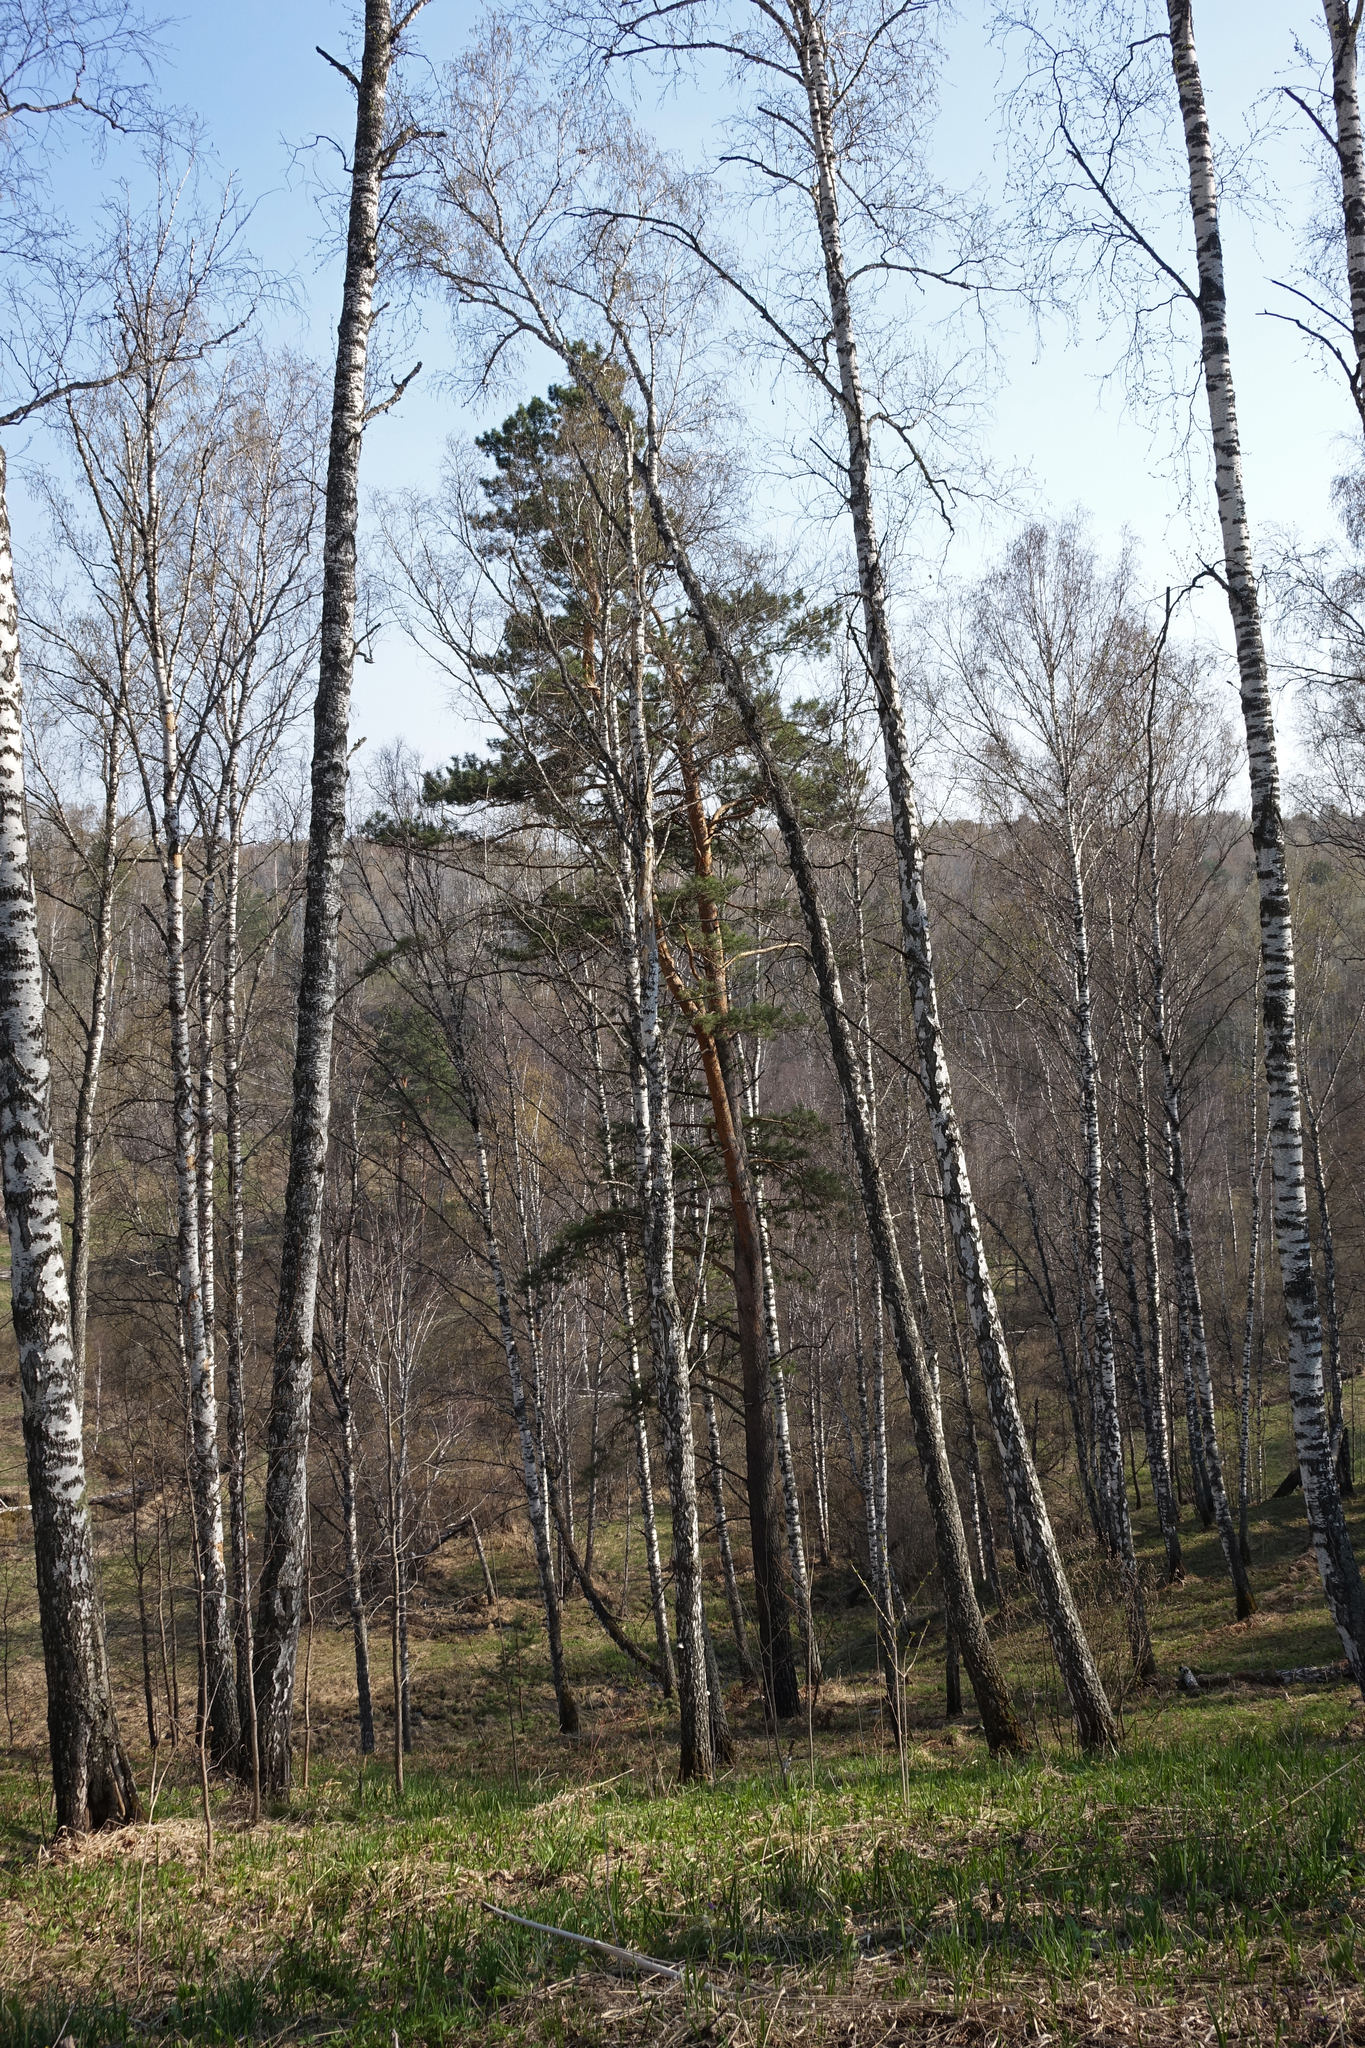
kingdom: Plantae
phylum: Tracheophyta
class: Pinopsida
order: Pinales
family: Pinaceae
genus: Pinus
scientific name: Pinus sylvestris
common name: Scots pine
